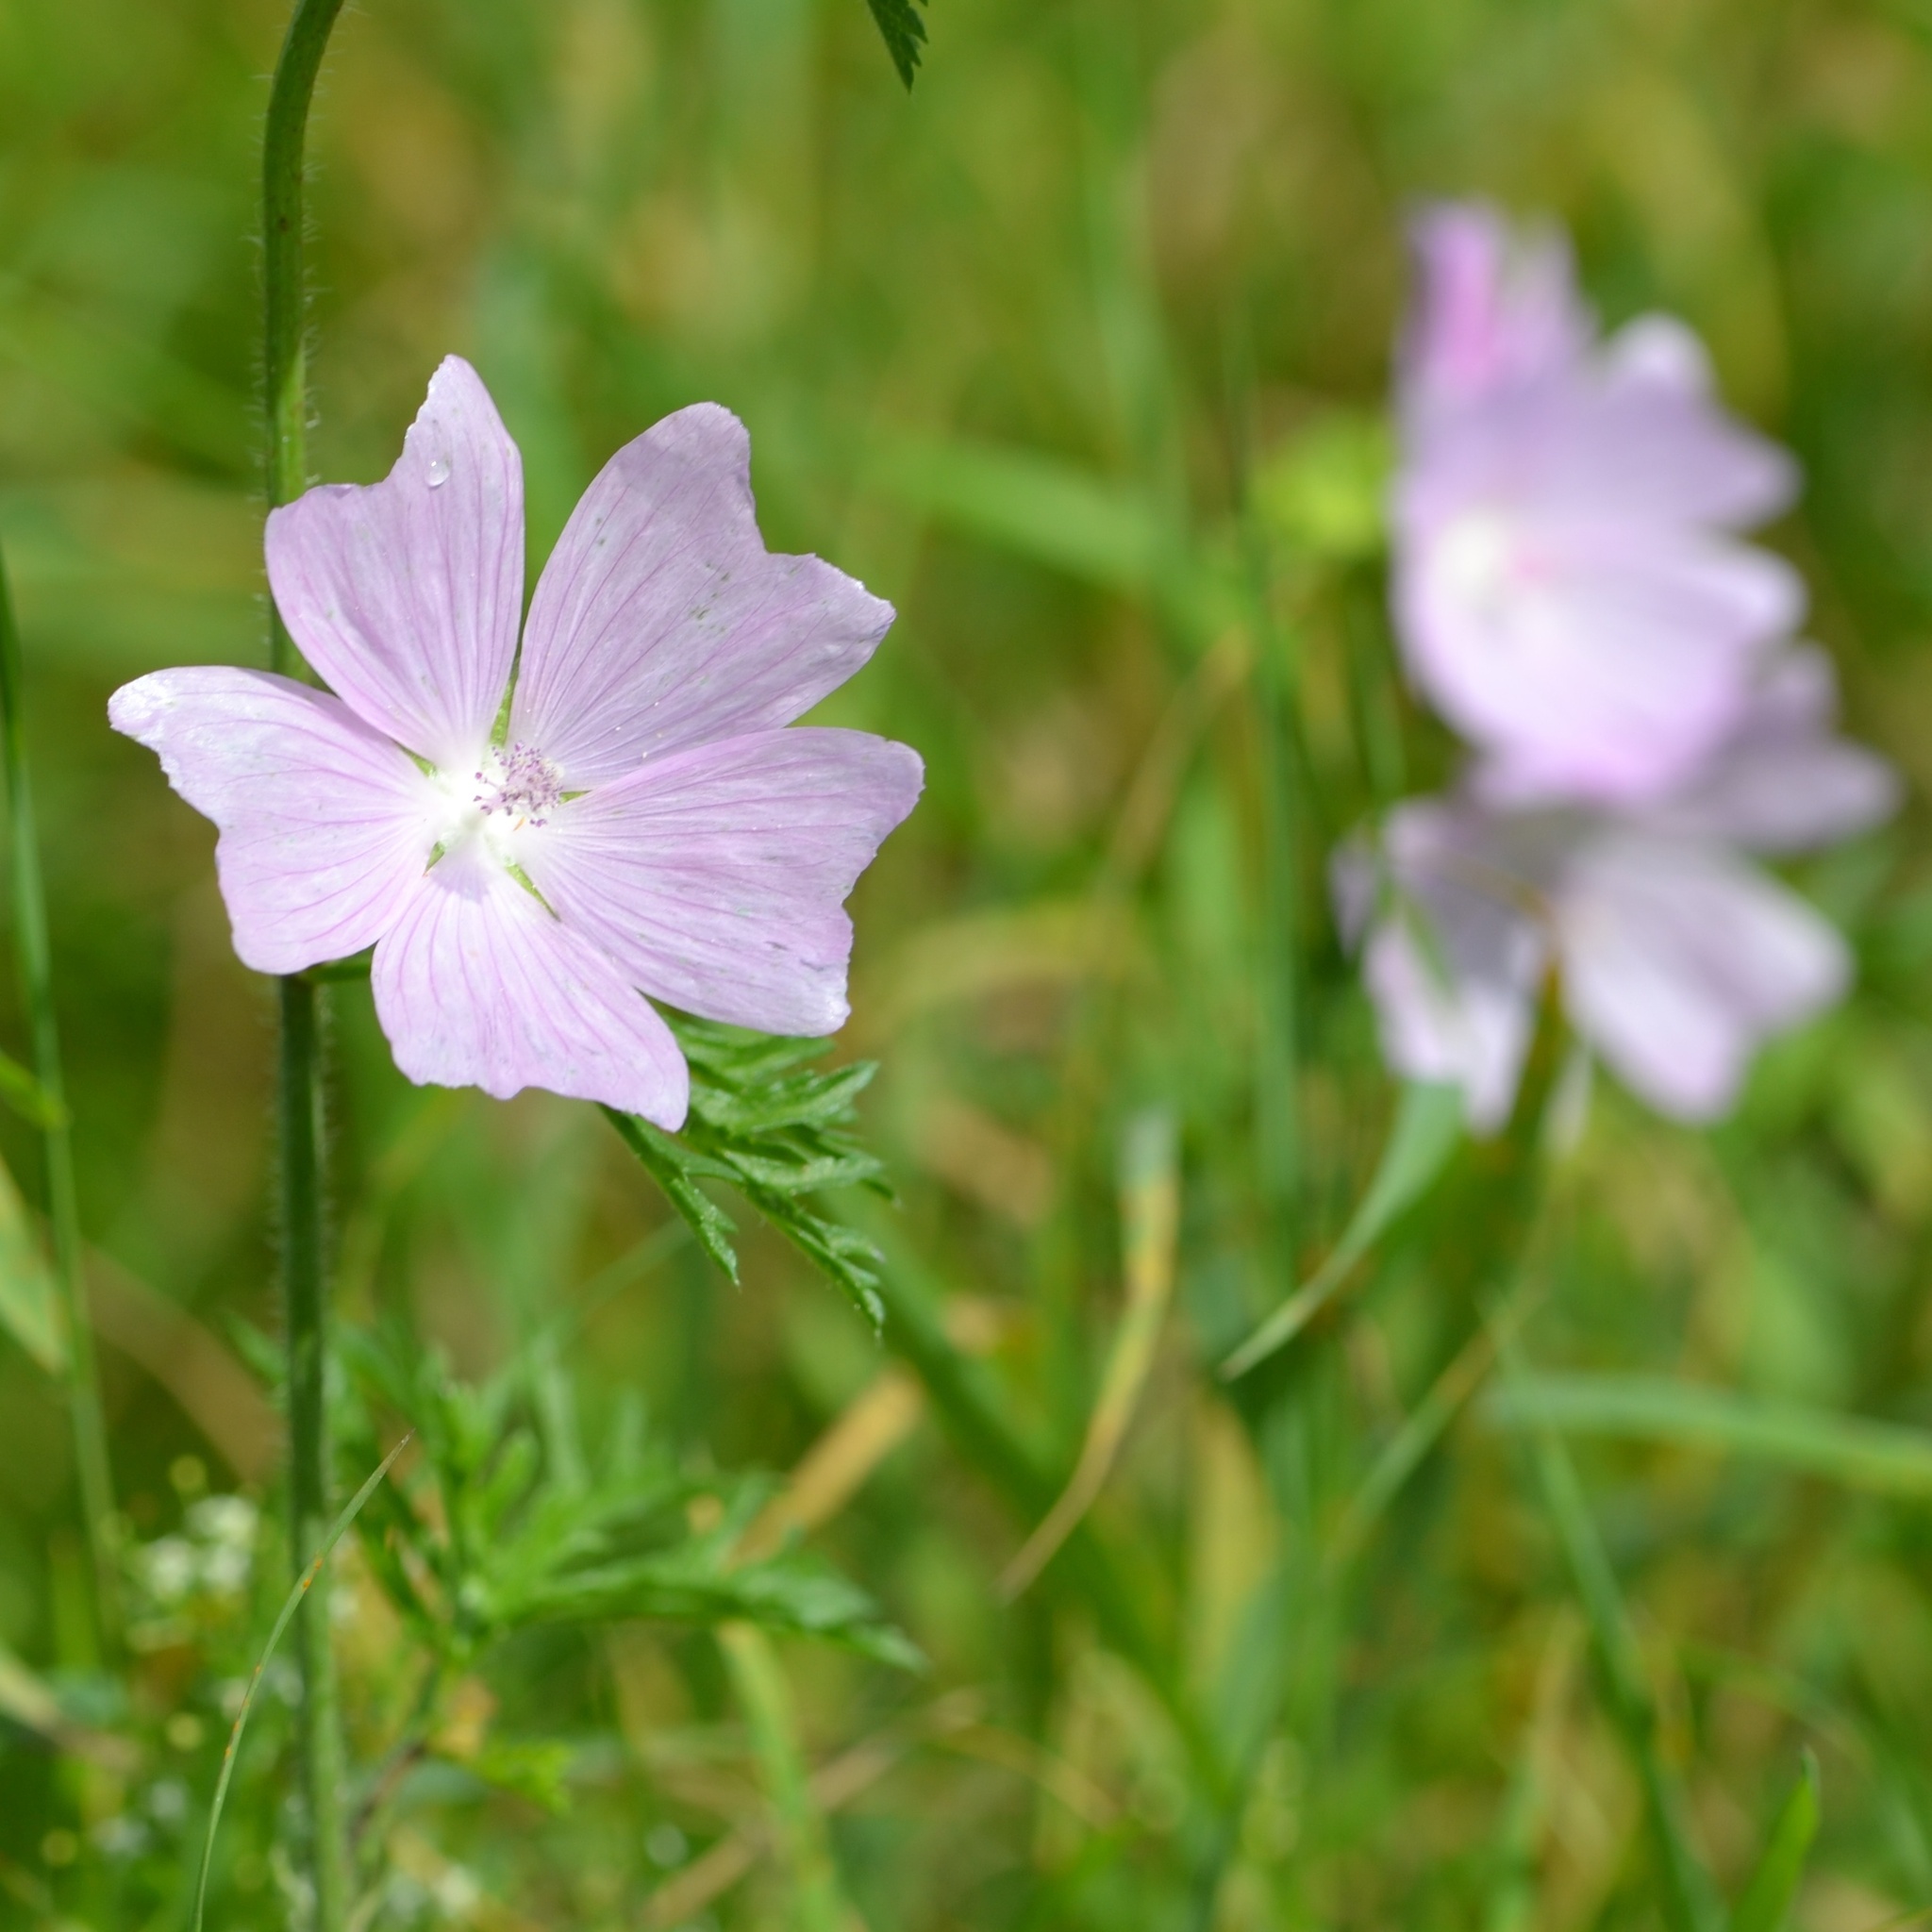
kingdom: Plantae
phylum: Tracheophyta
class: Magnoliopsida
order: Malvales
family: Malvaceae
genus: Malva
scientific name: Malva moschata
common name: Musk mallow
